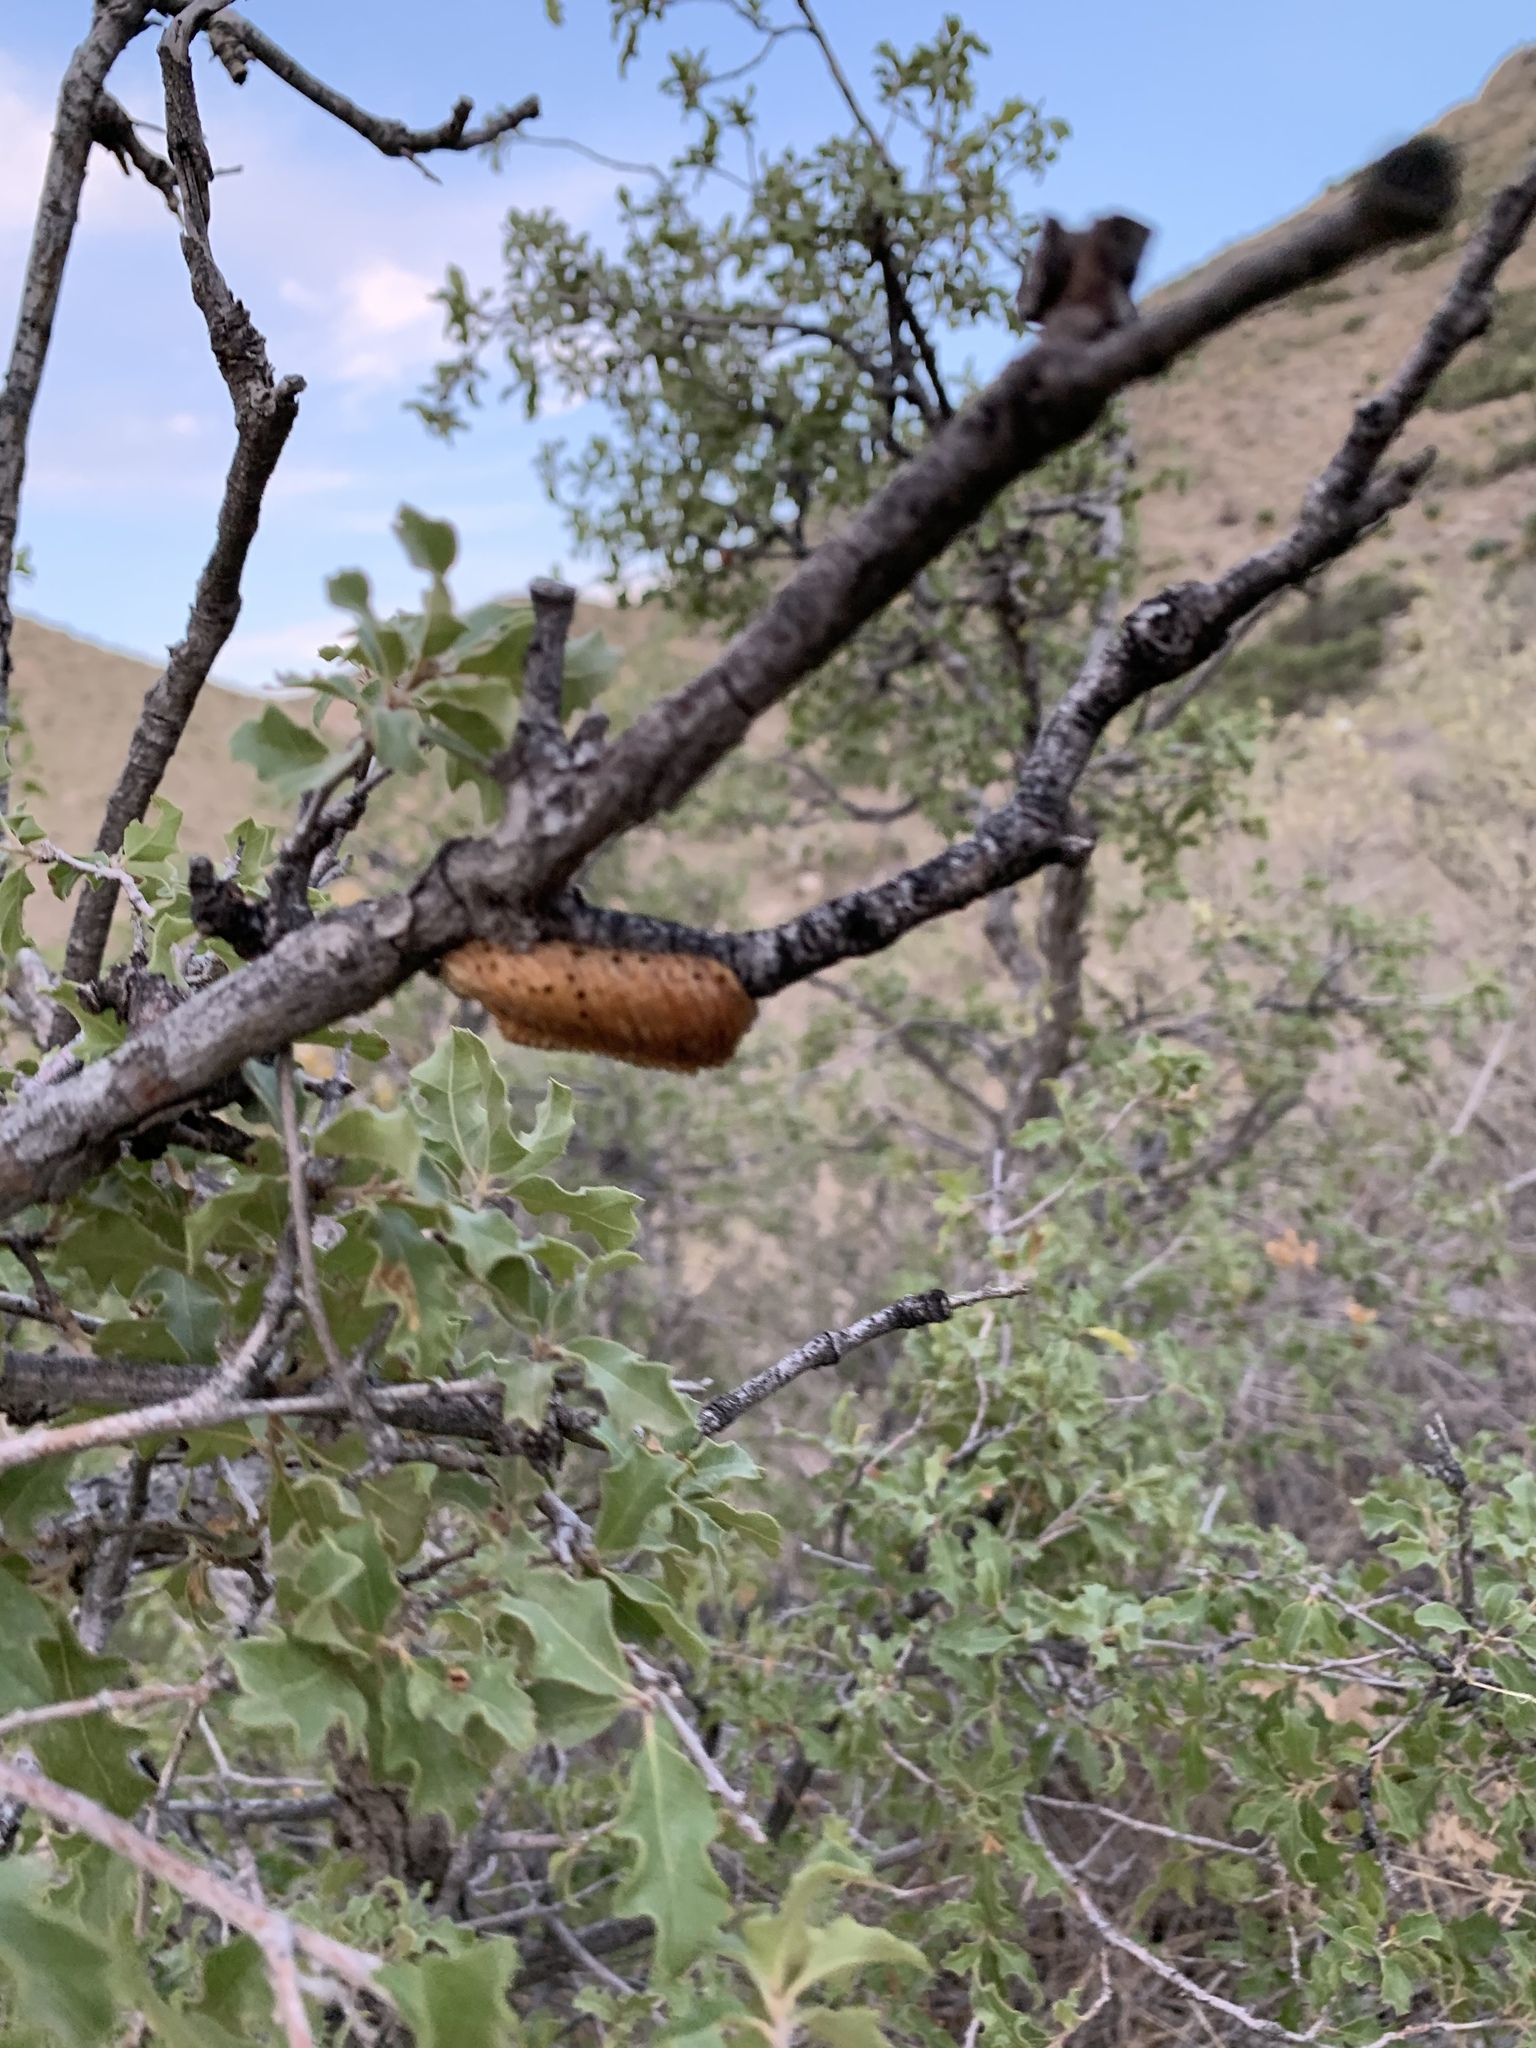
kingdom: Animalia
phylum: Arthropoda
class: Insecta
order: Mantodea
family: Mantidae
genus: Stagmomantis
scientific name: Stagmomantis californica
